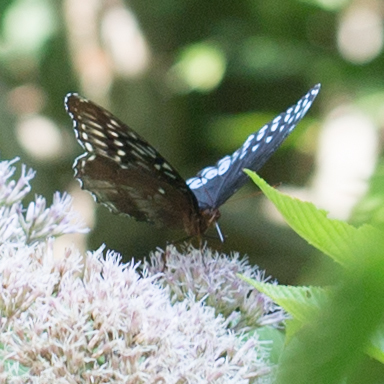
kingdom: Animalia
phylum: Arthropoda
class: Insecta
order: Lepidoptera
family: Nymphalidae
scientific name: Nymphalidae
